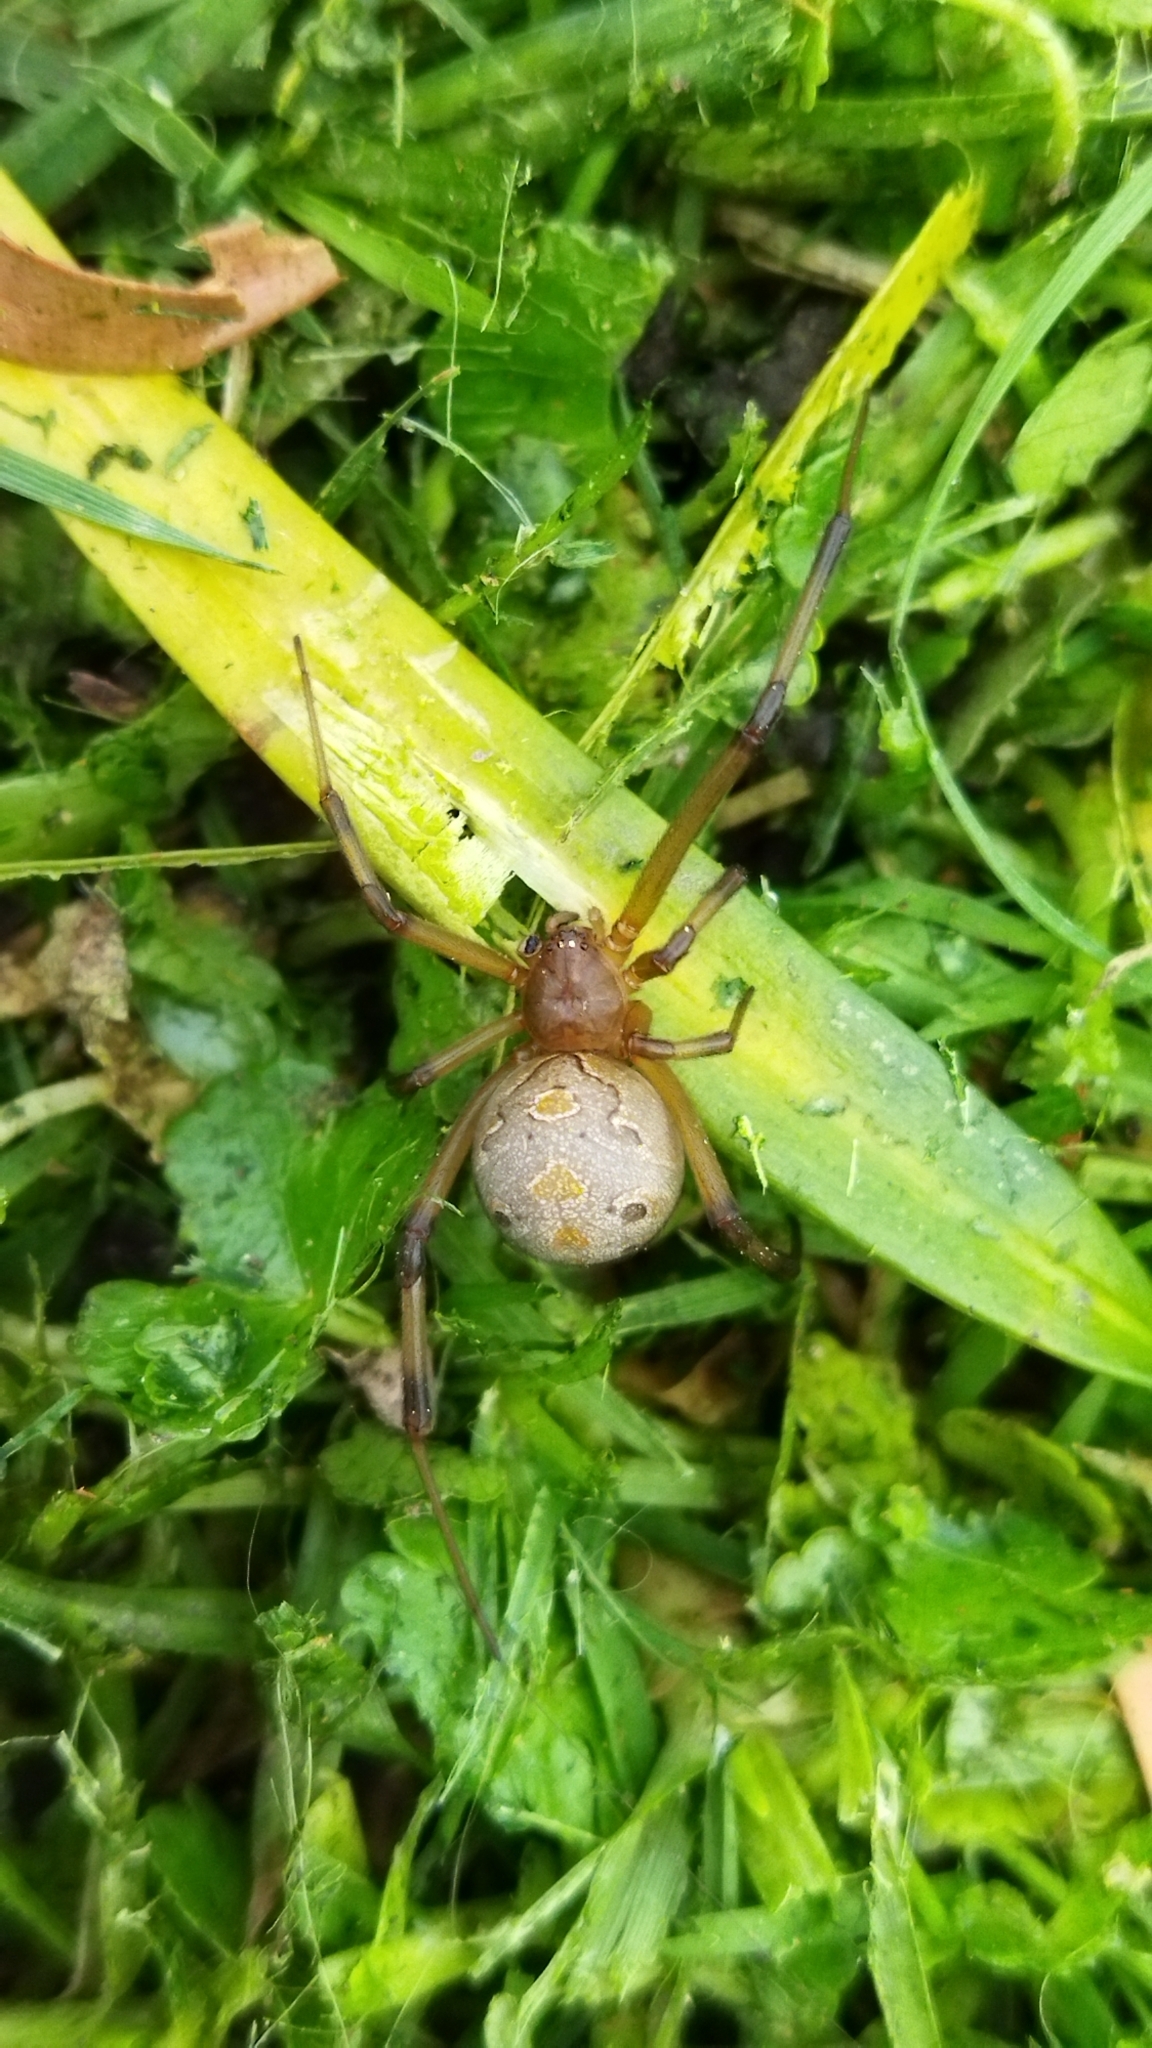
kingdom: Animalia
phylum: Arthropoda
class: Arachnida
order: Araneae
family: Theridiidae
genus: Latrodectus
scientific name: Latrodectus geometricus
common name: Brown widow spider
